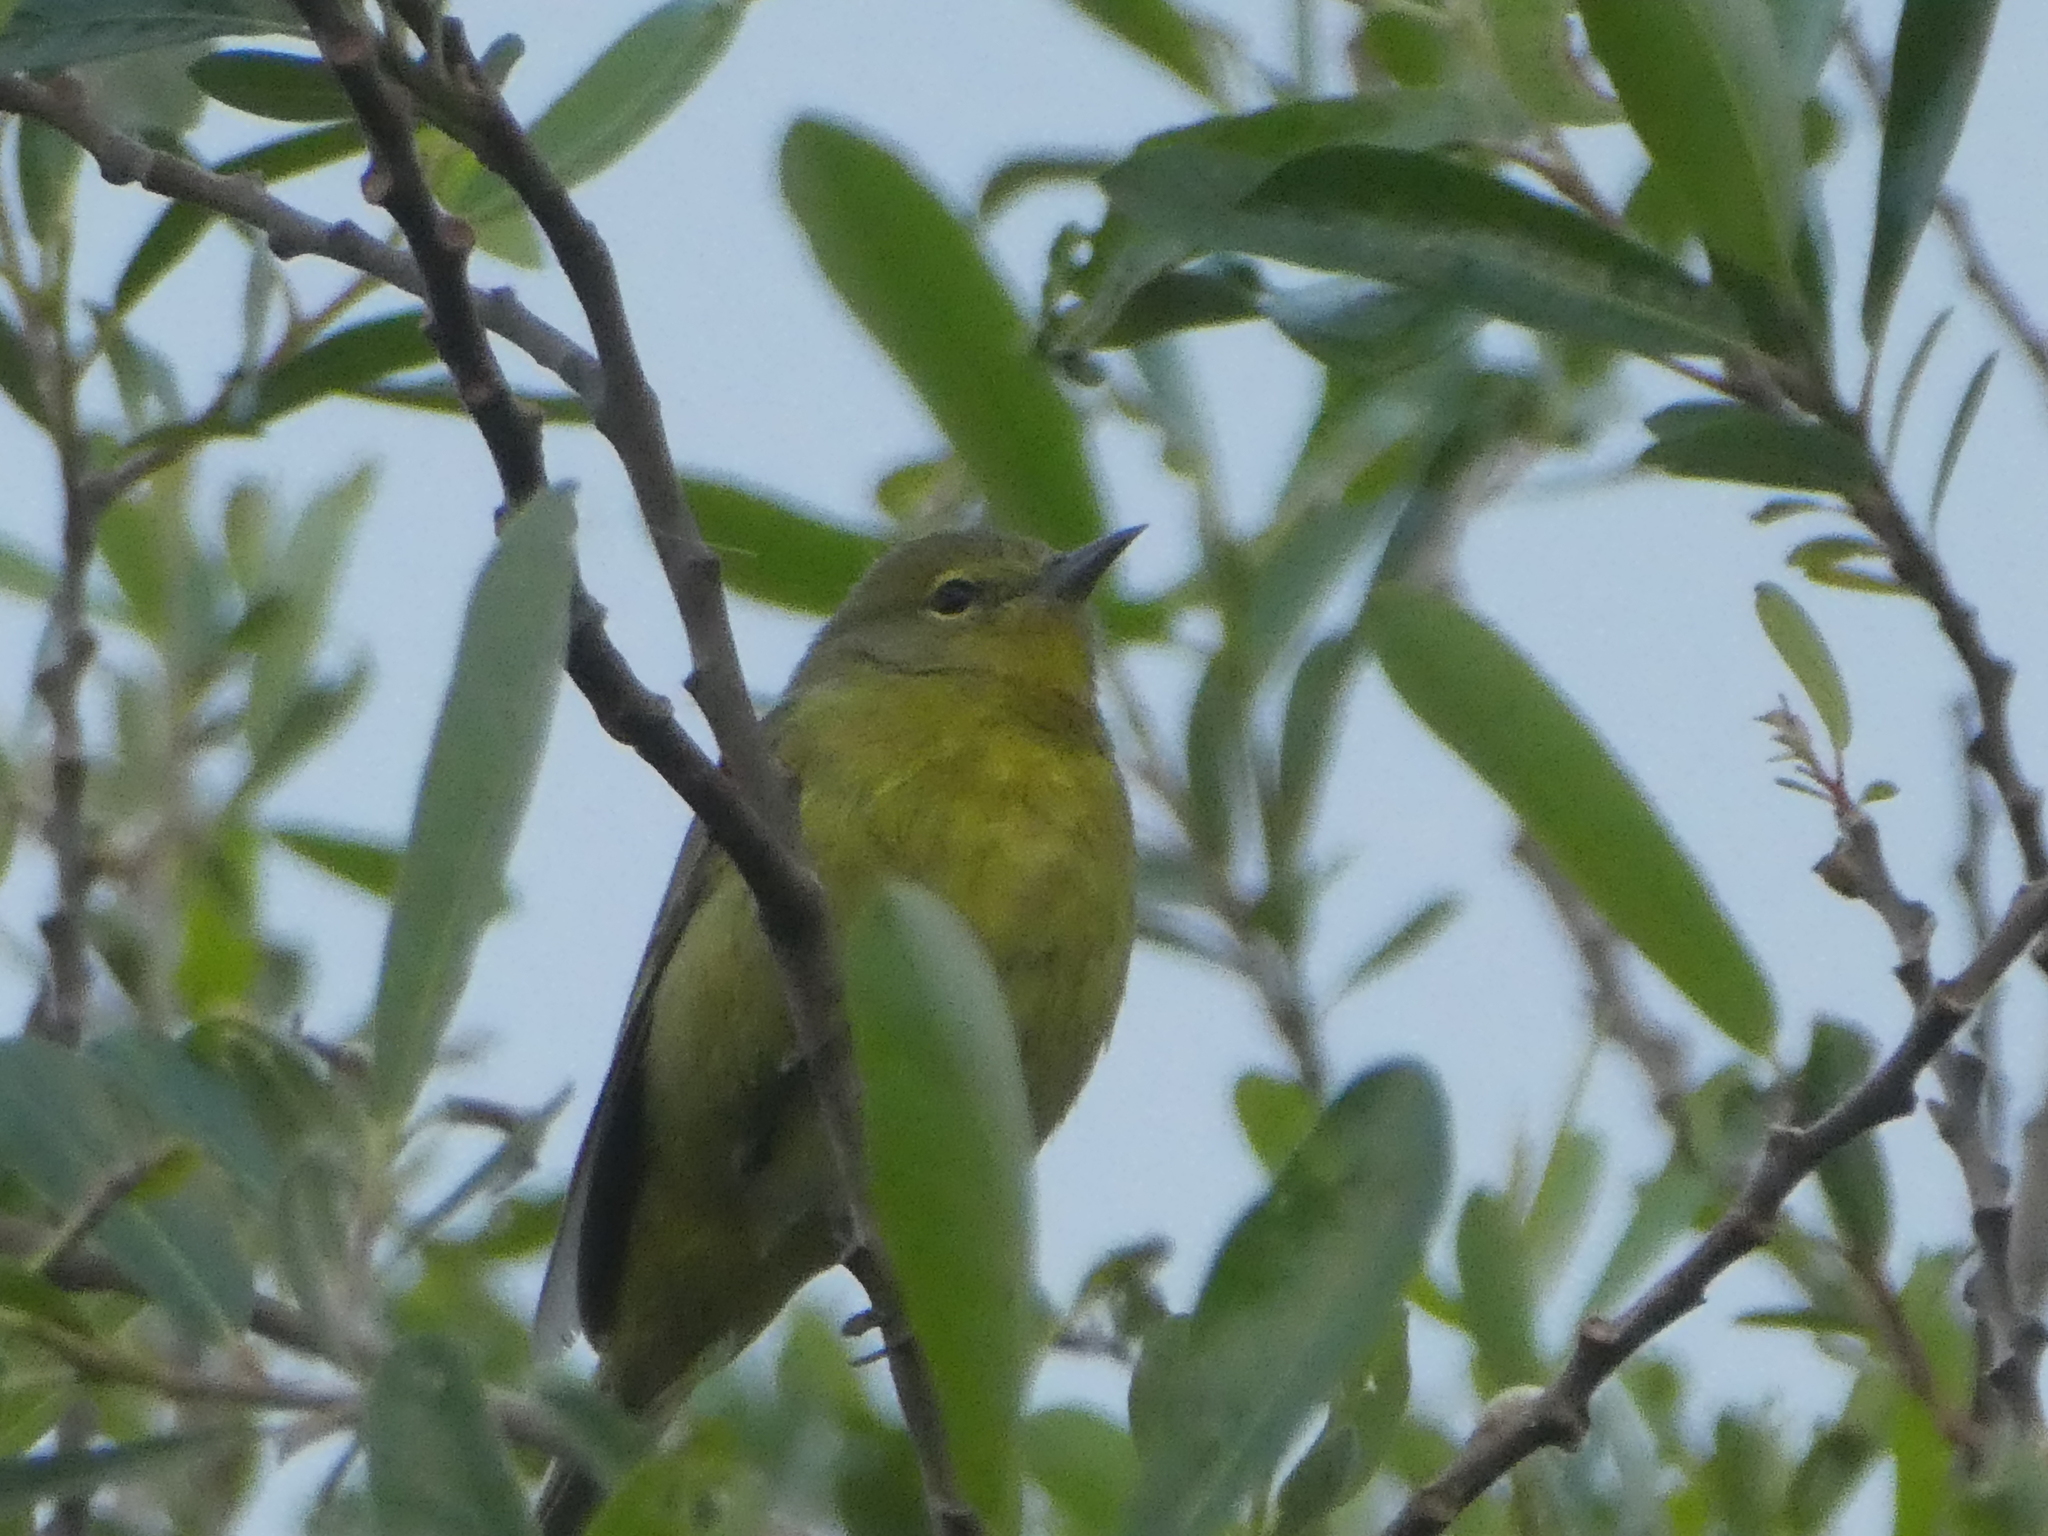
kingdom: Animalia
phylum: Chordata
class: Aves
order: Passeriformes
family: Parulidae
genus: Leiothlypis
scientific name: Leiothlypis celata
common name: Orange-crowned warbler
